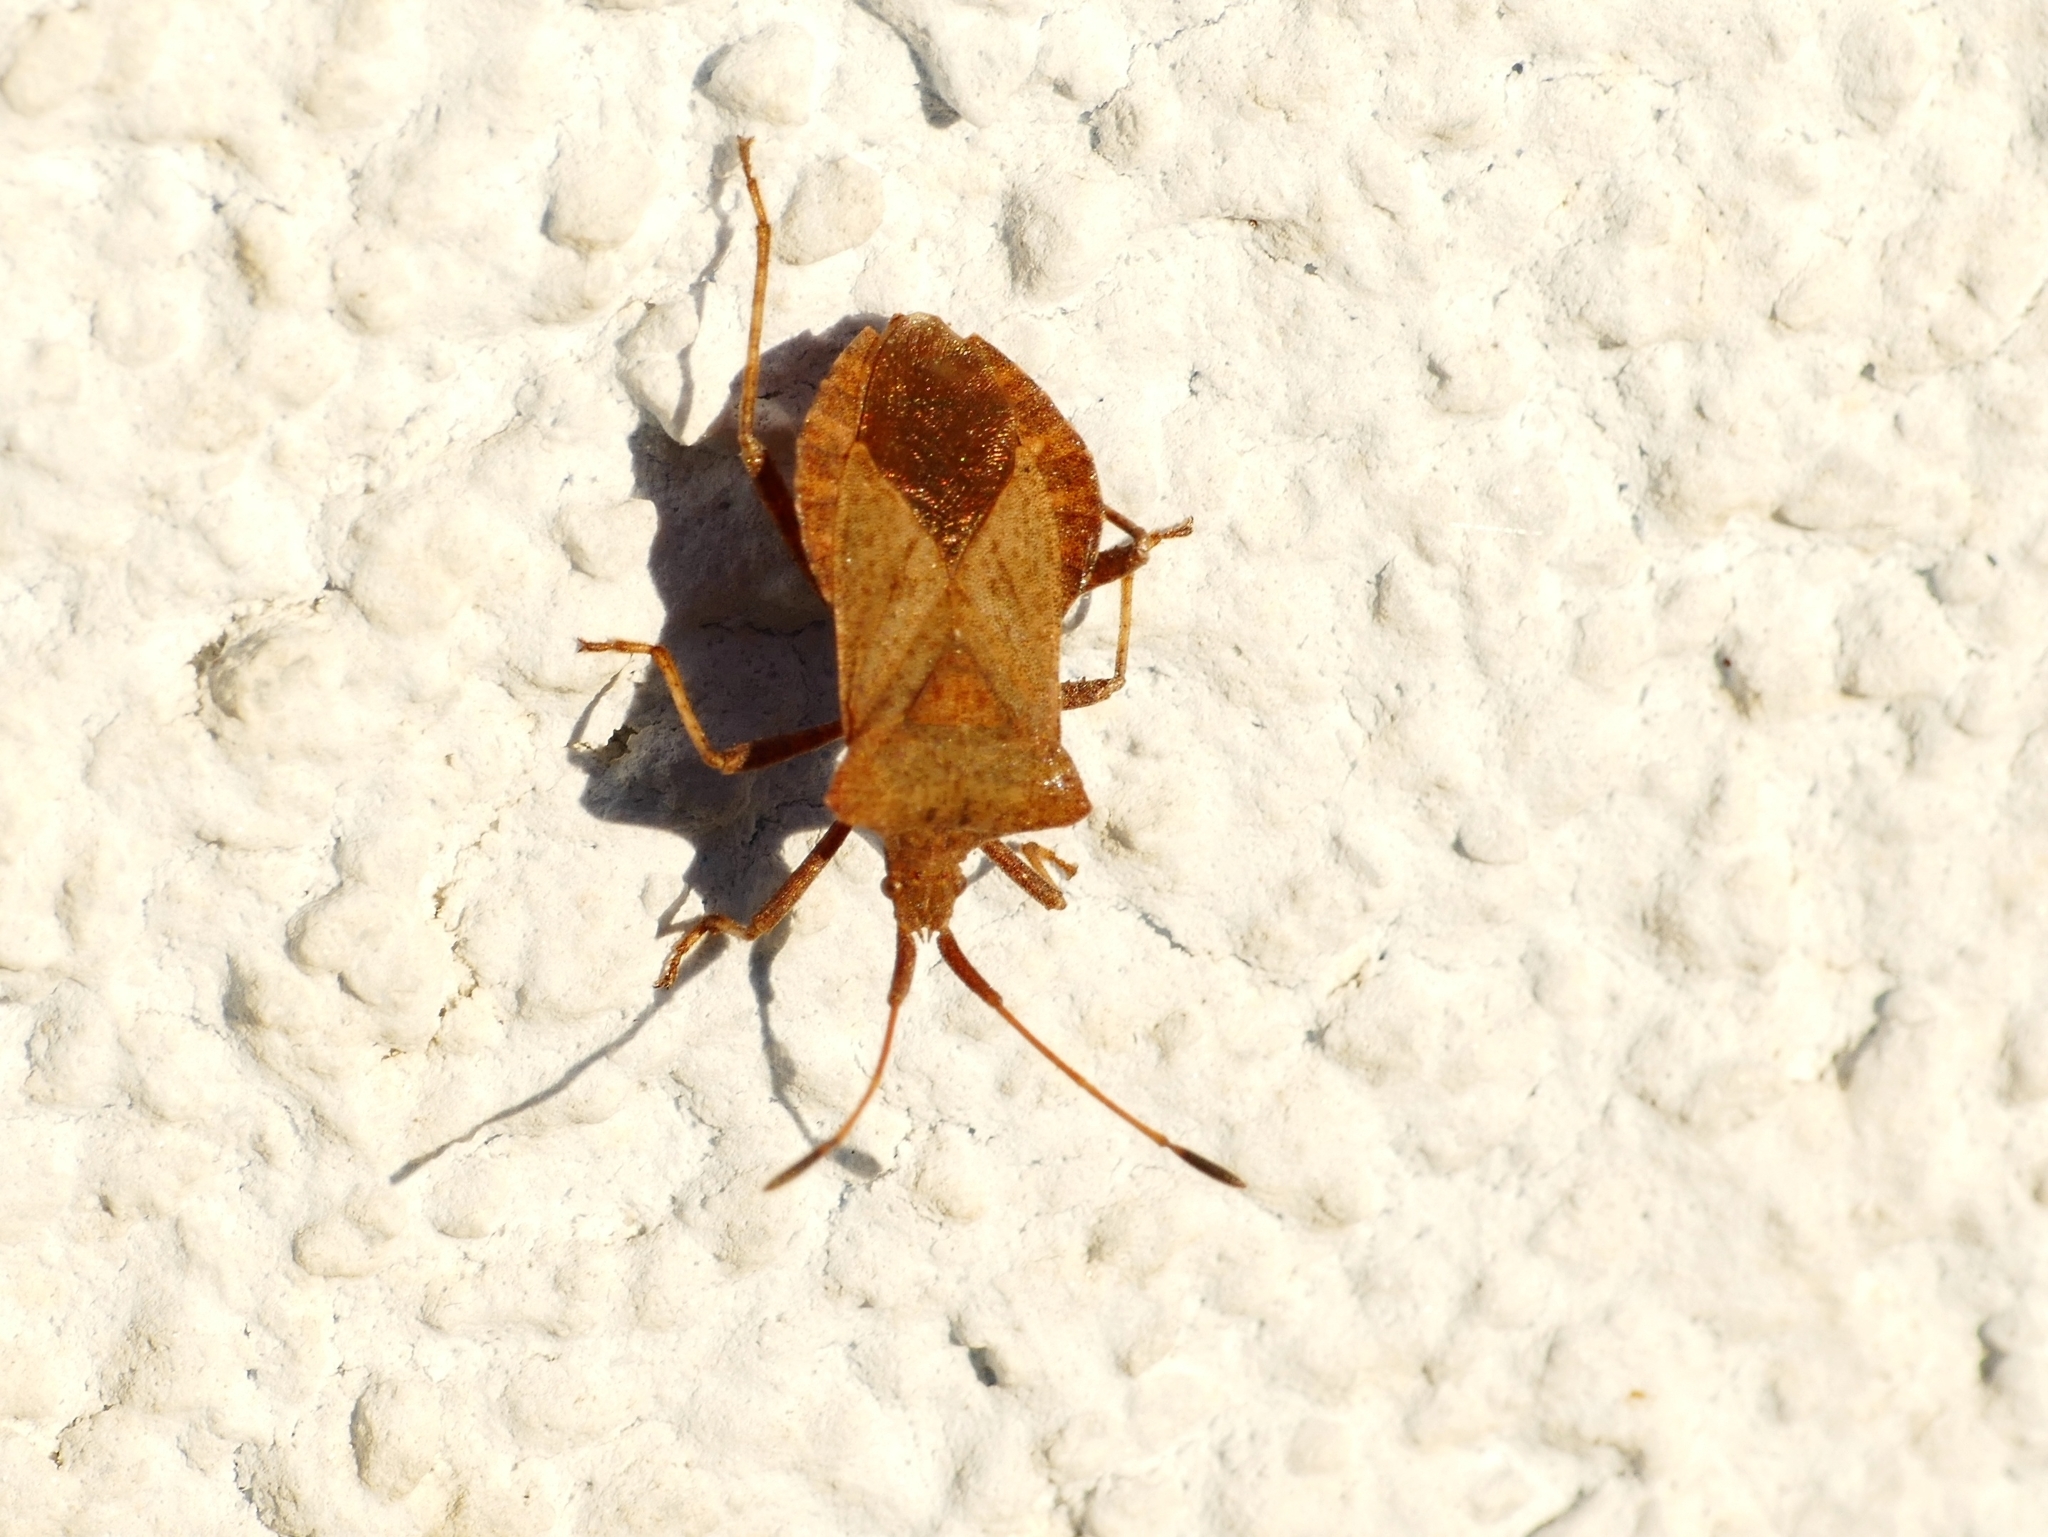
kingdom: Animalia
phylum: Arthropoda
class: Insecta
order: Hemiptera
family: Coreidae
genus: Coreus
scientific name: Coreus marginatus
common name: Dock bug
